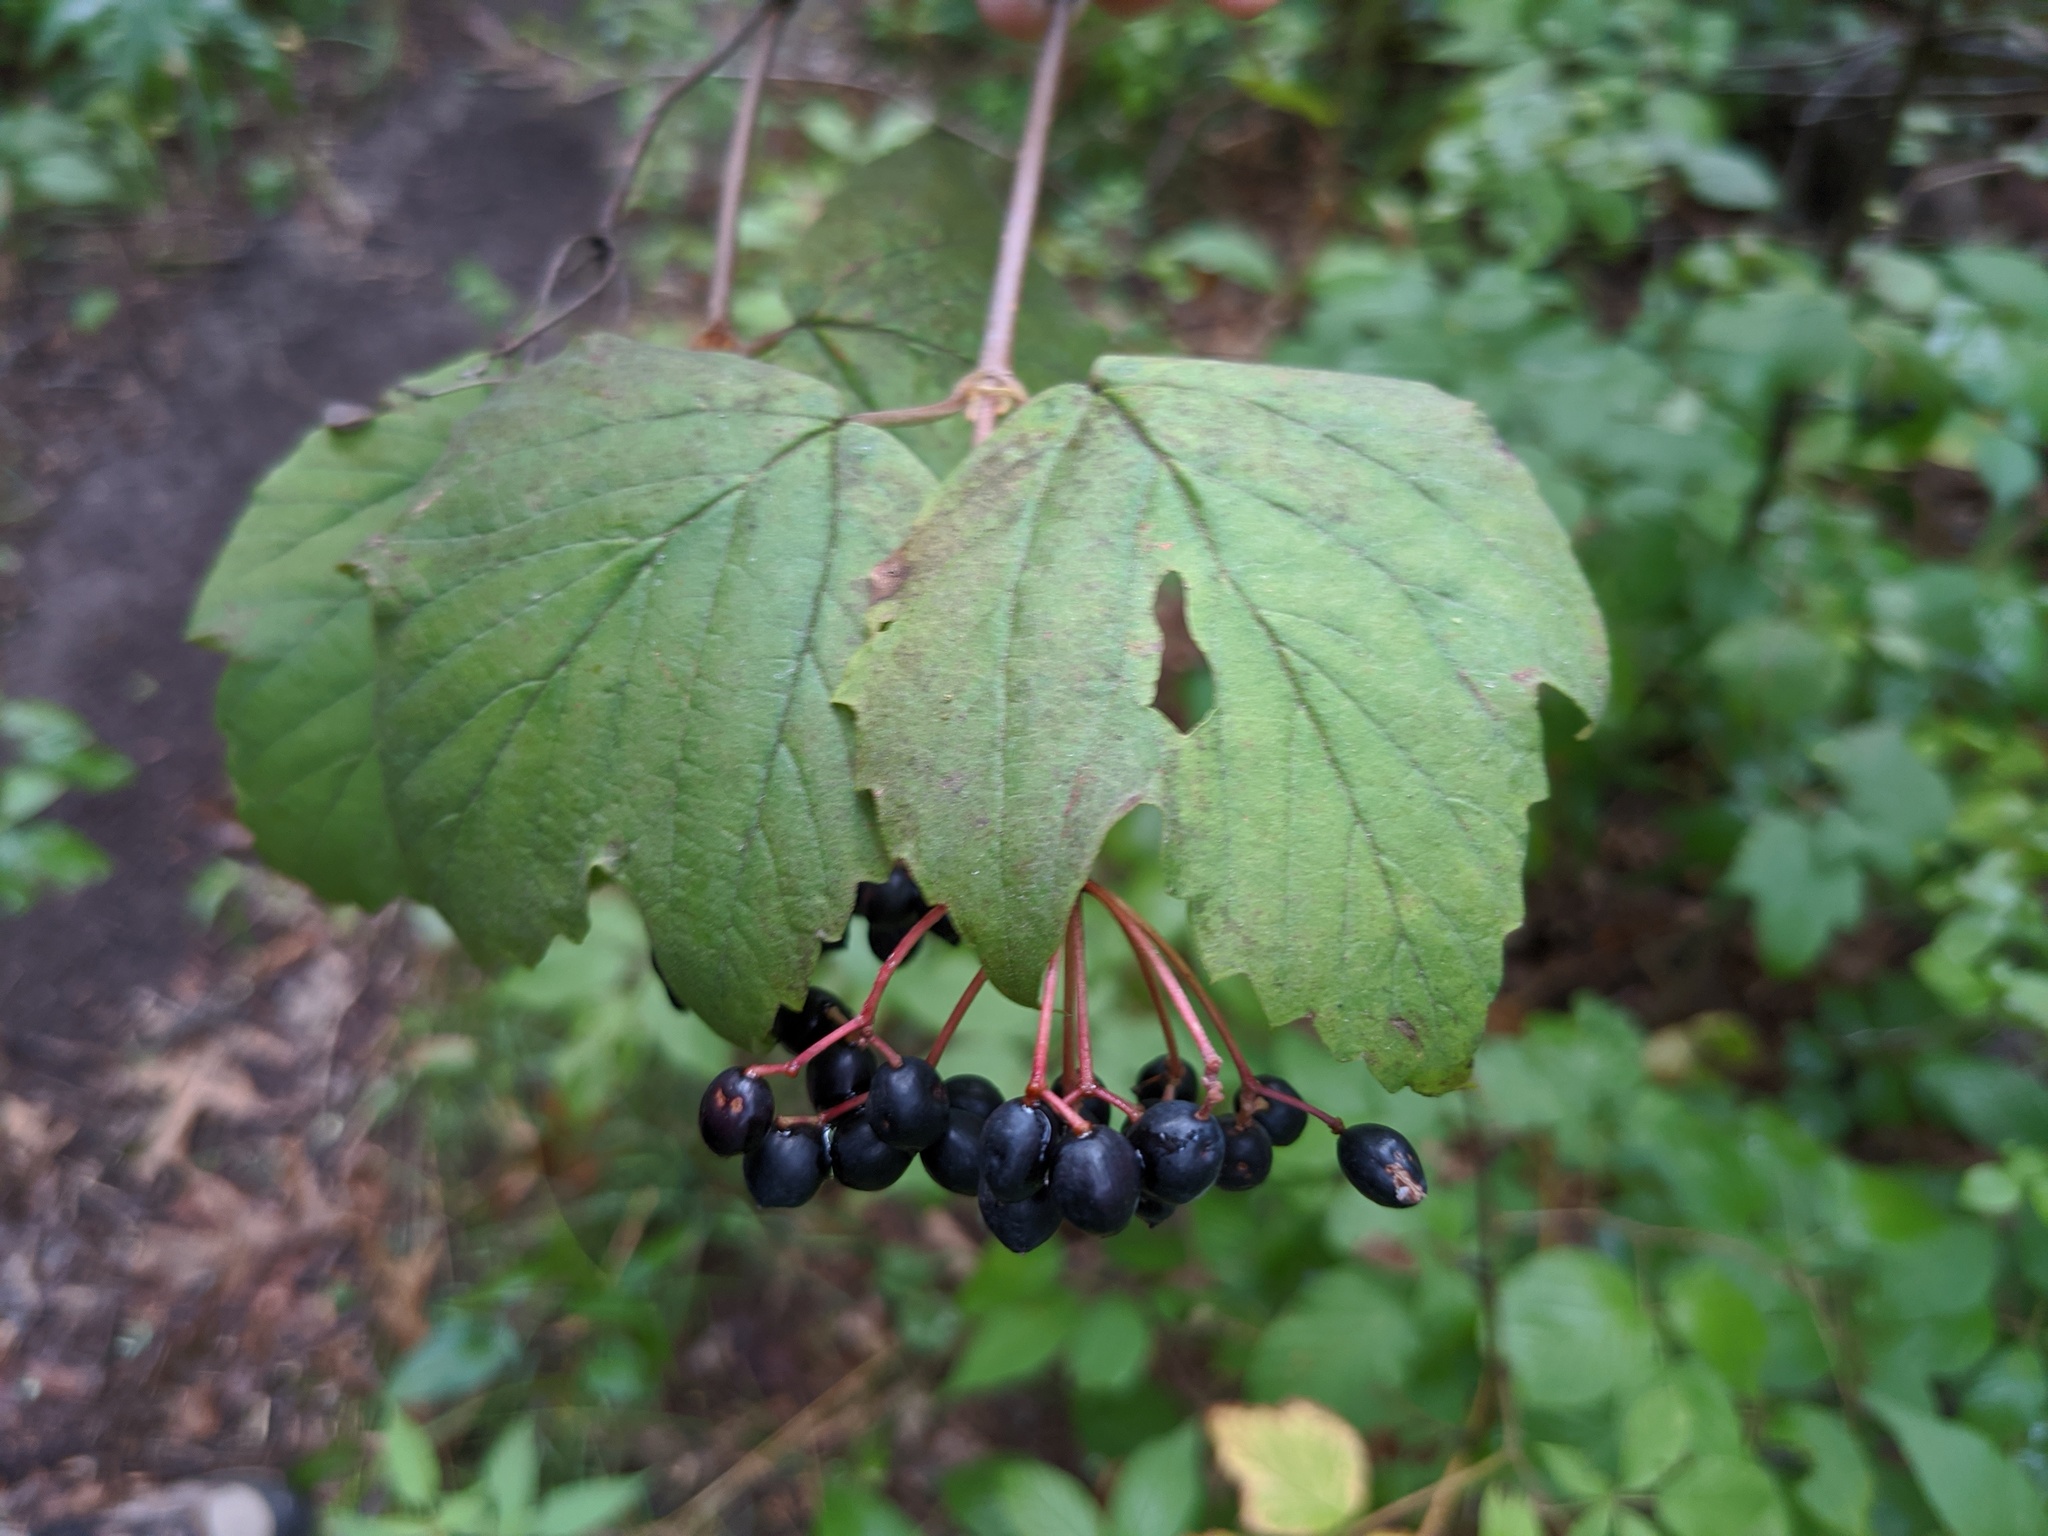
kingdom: Plantae
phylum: Tracheophyta
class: Magnoliopsida
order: Dipsacales
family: Viburnaceae
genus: Viburnum
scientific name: Viburnum acerifolium
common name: Dockmackie
